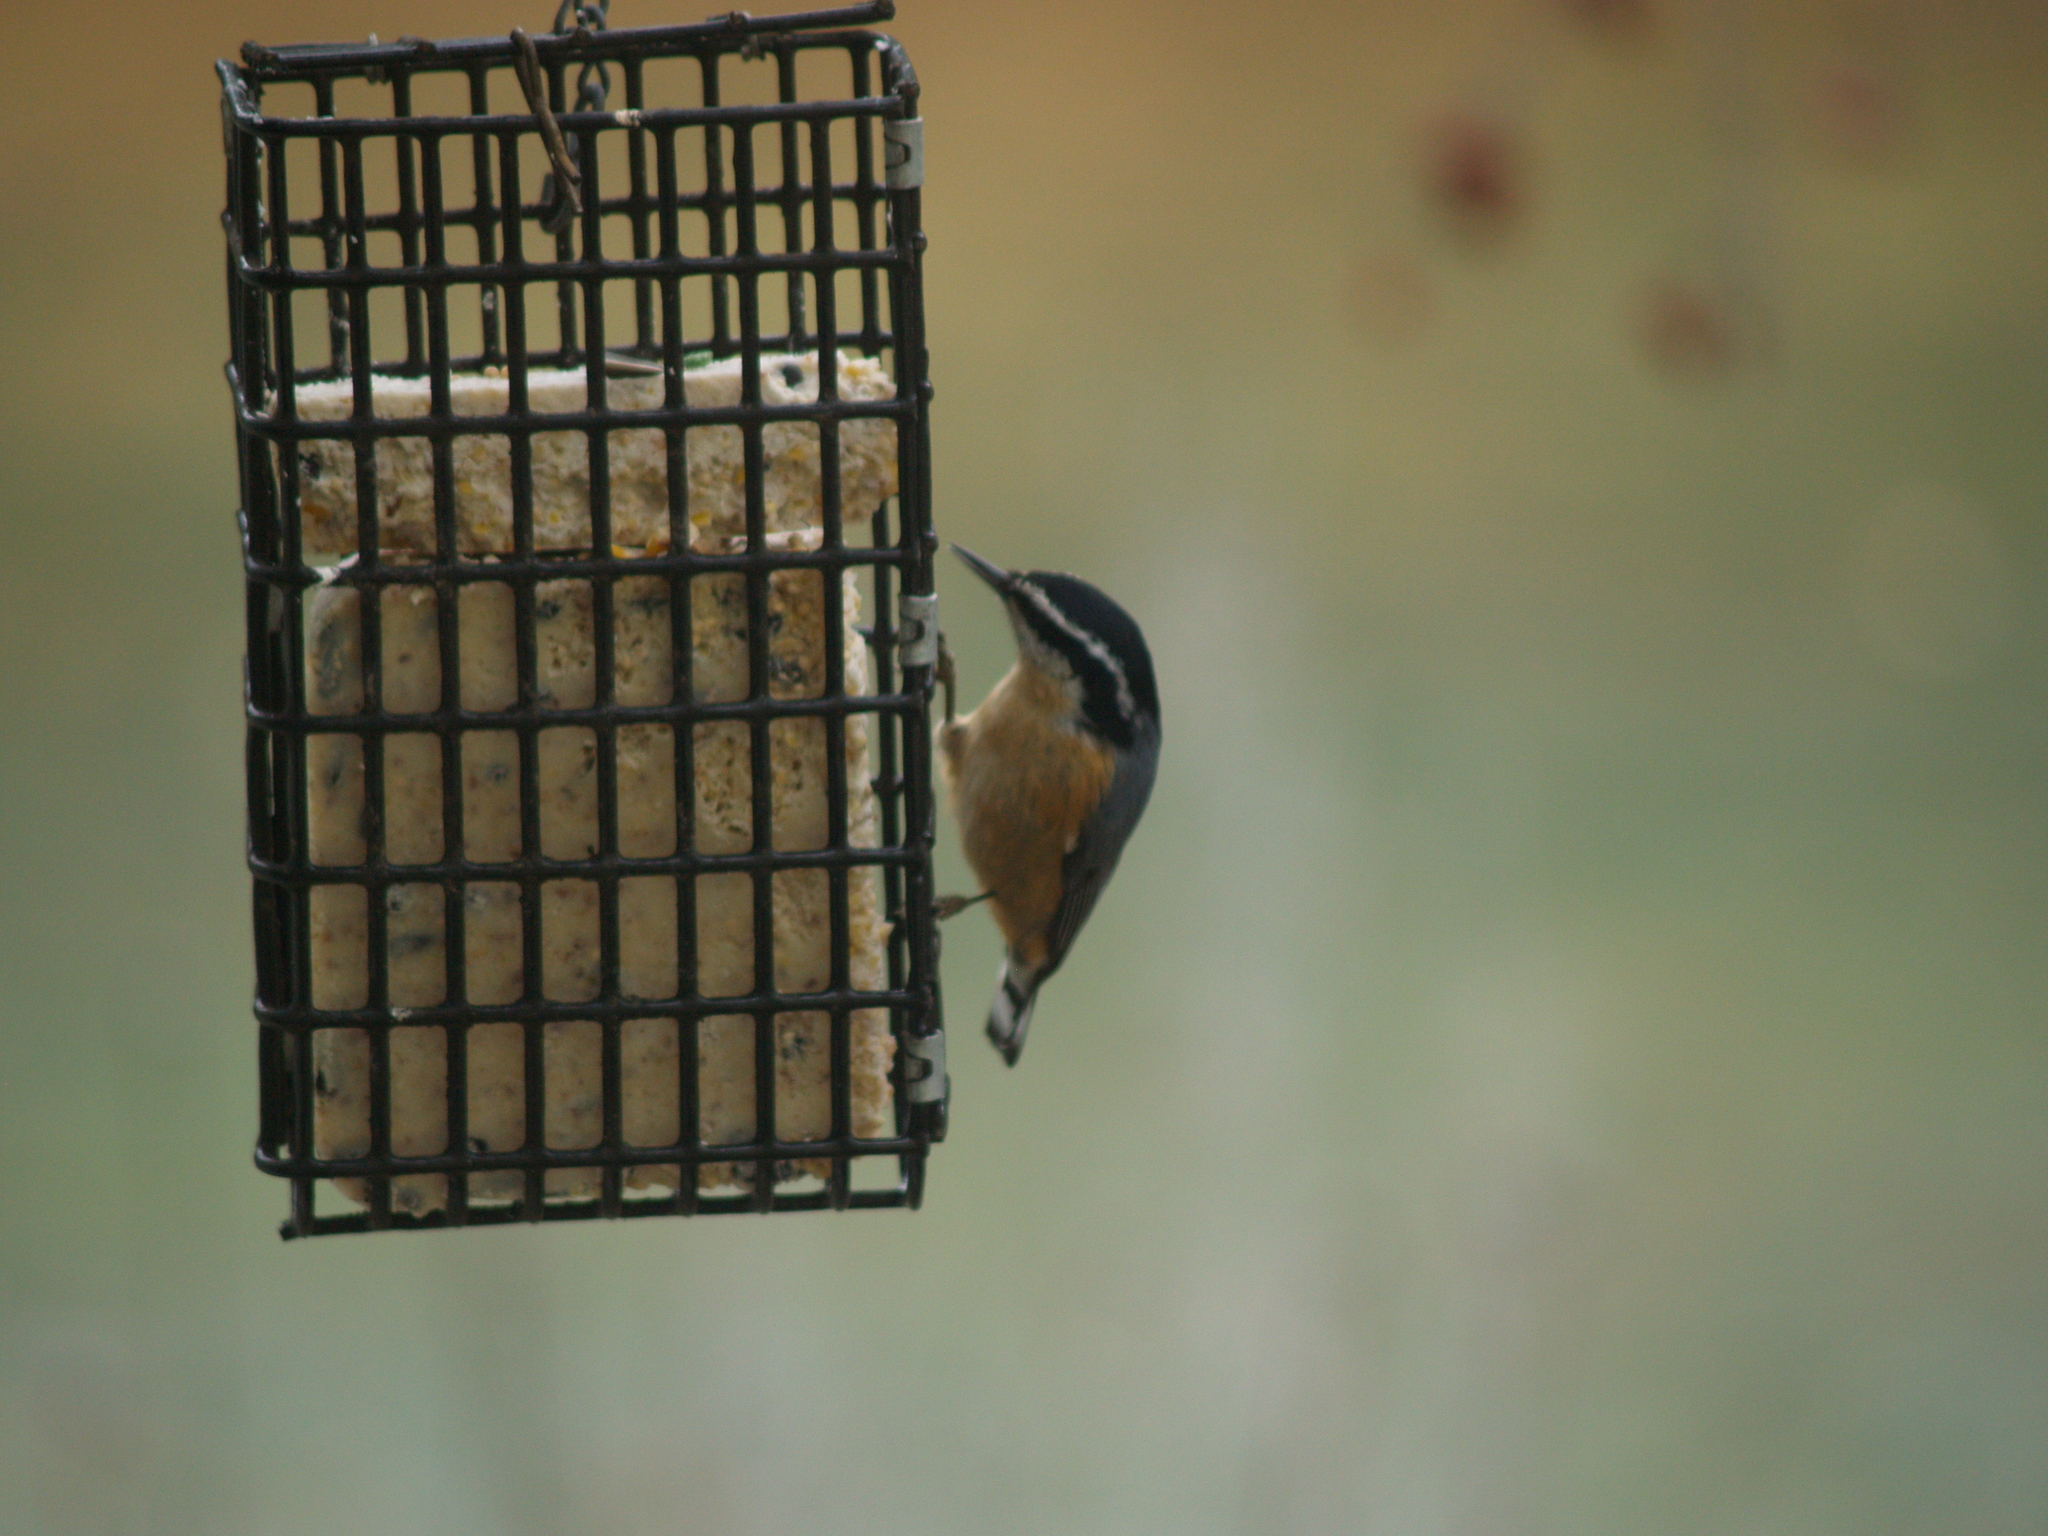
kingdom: Animalia
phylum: Chordata
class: Aves
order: Passeriformes
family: Sittidae
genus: Sitta
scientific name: Sitta canadensis
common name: Red-breasted nuthatch
